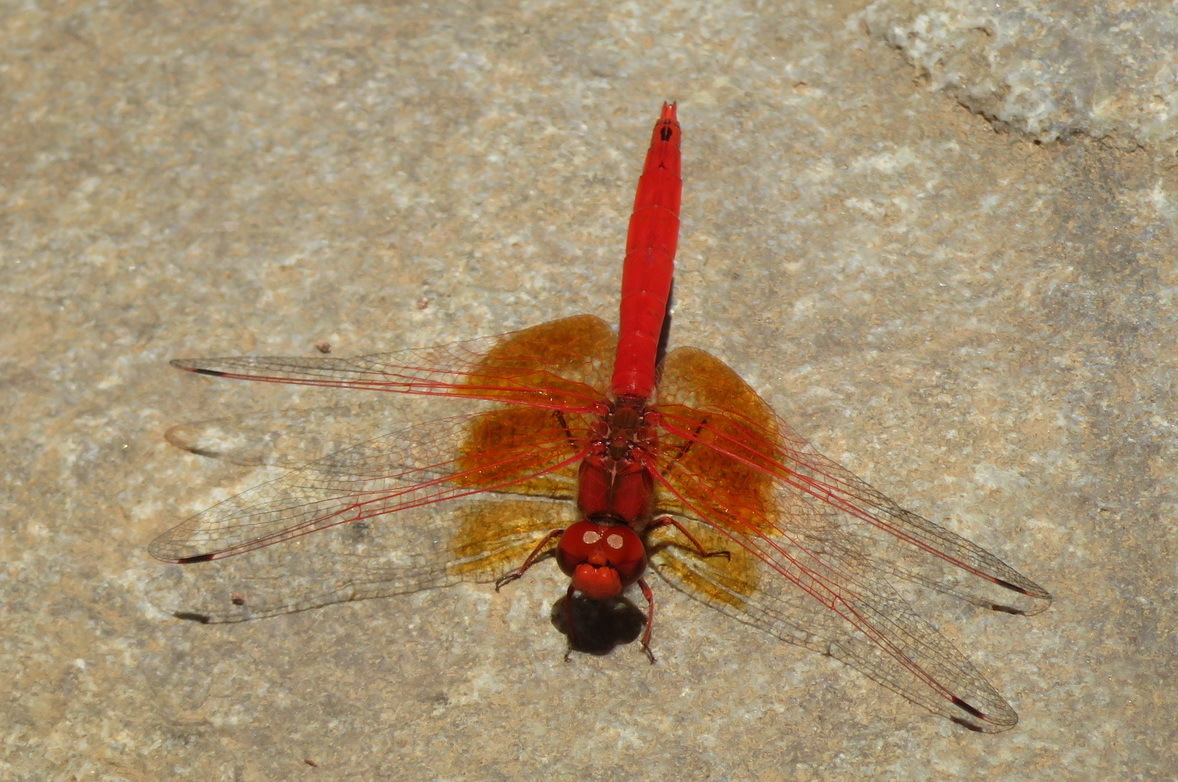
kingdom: Animalia
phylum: Arthropoda
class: Insecta
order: Odonata
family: Libellulidae
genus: Trithemis
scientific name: Trithemis kirbyi
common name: Kirby's dropwing
